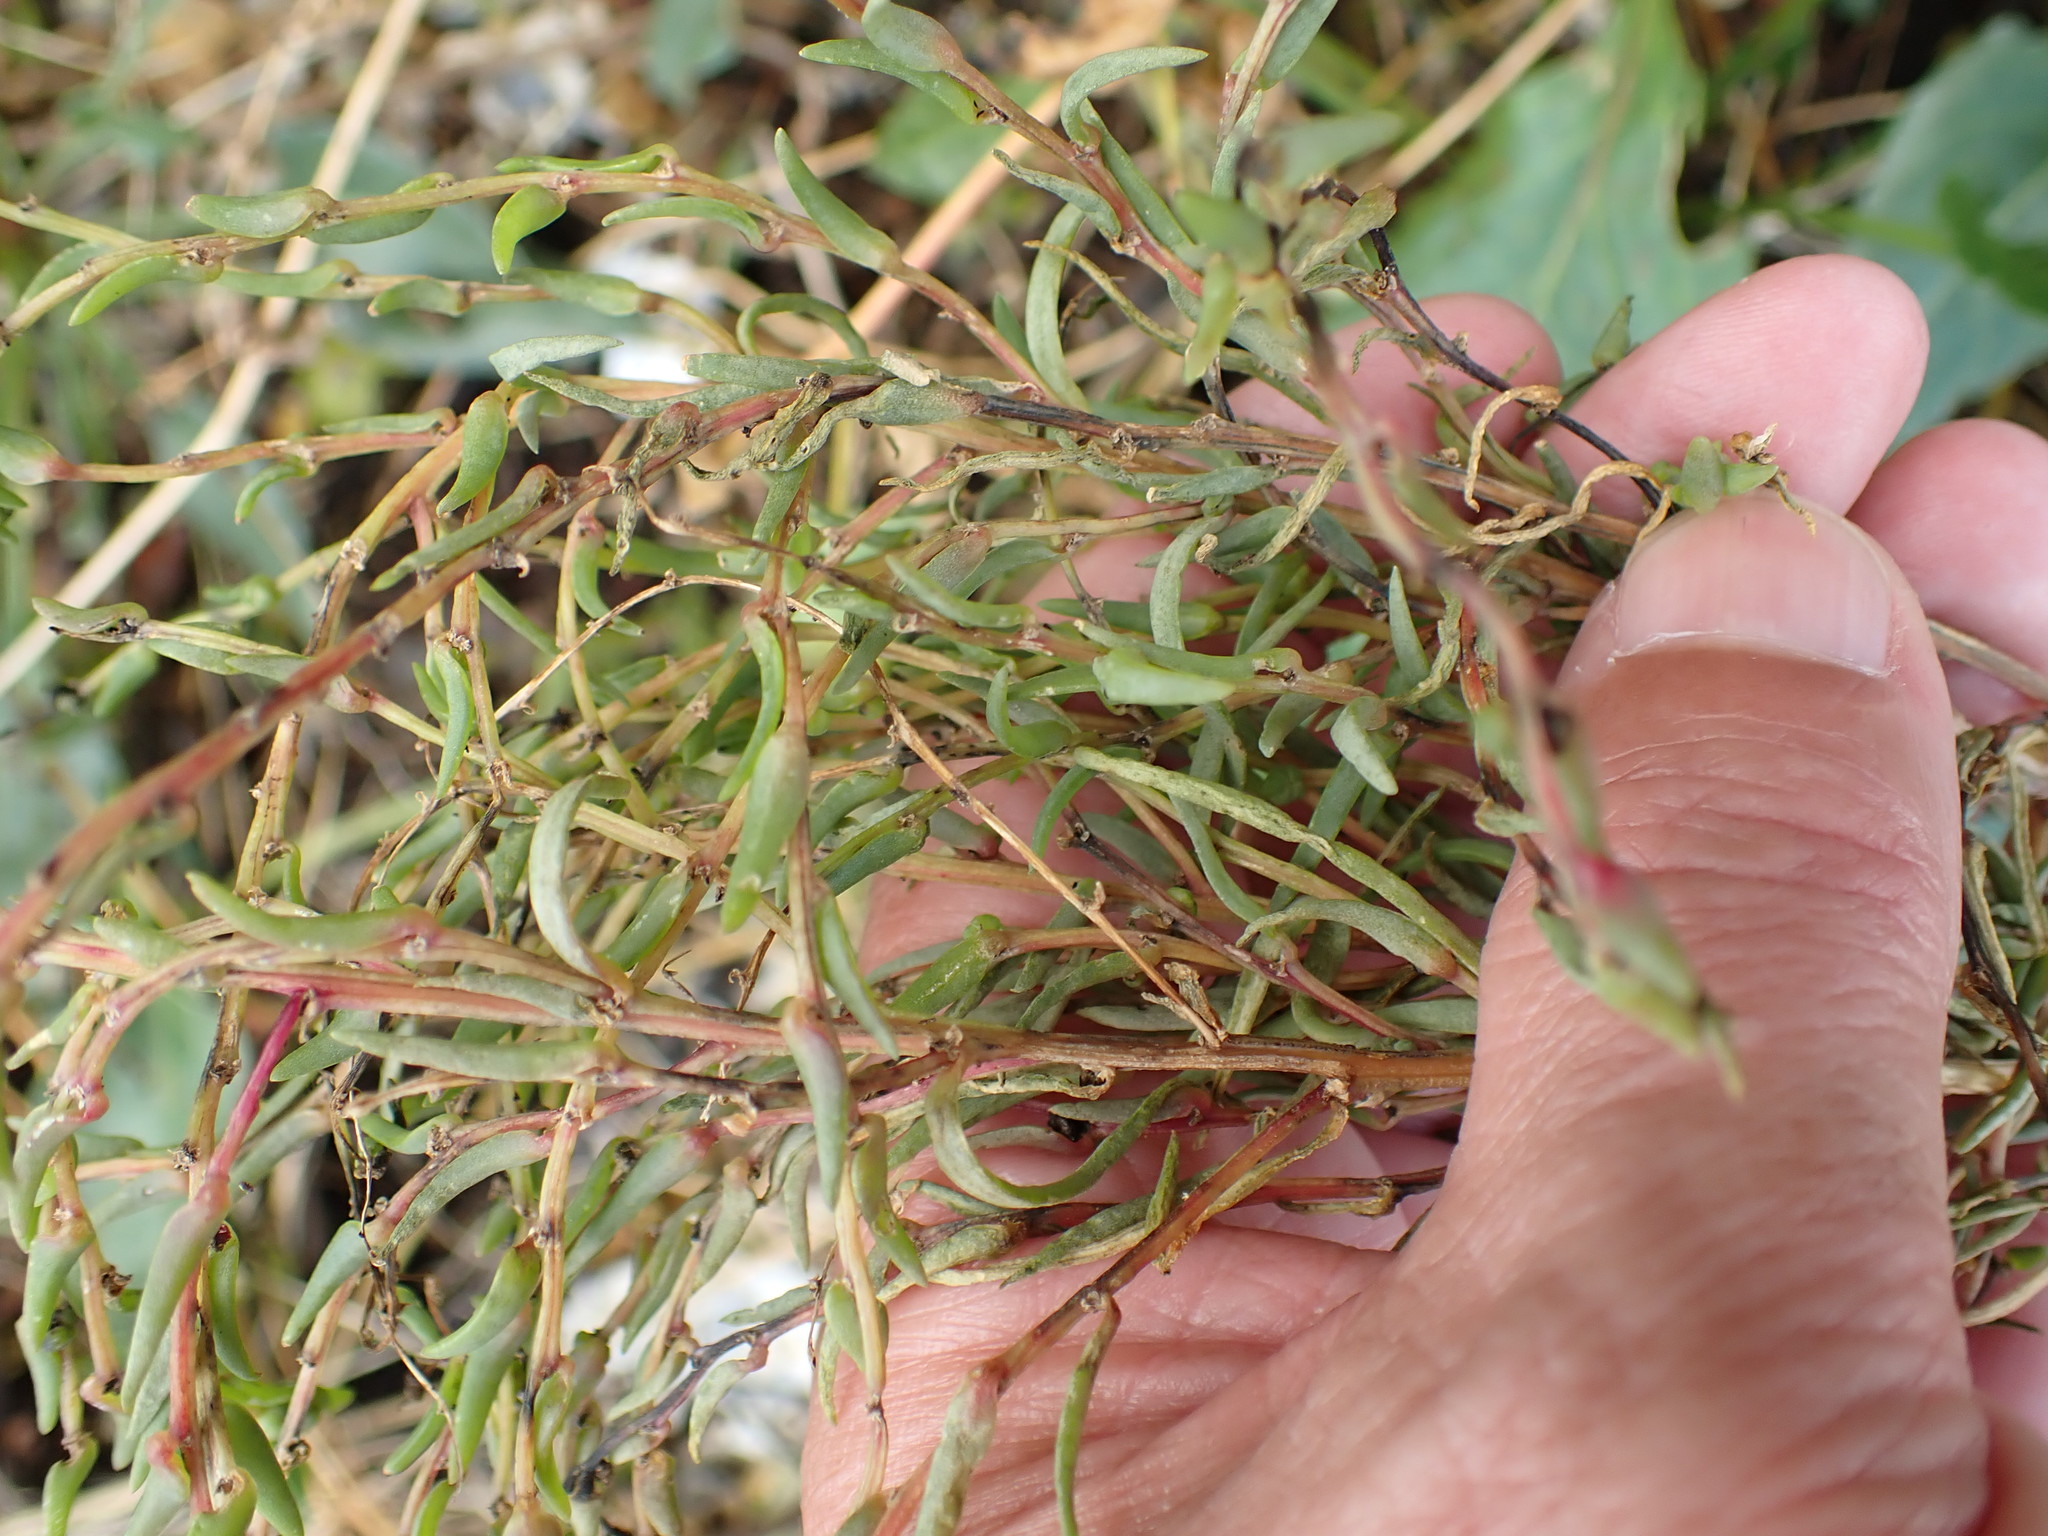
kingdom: Plantae
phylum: Tracheophyta
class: Magnoliopsida
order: Caryophyllales
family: Amaranthaceae
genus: Suaeda
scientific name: Suaeda maritima
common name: Annual sea-blite
